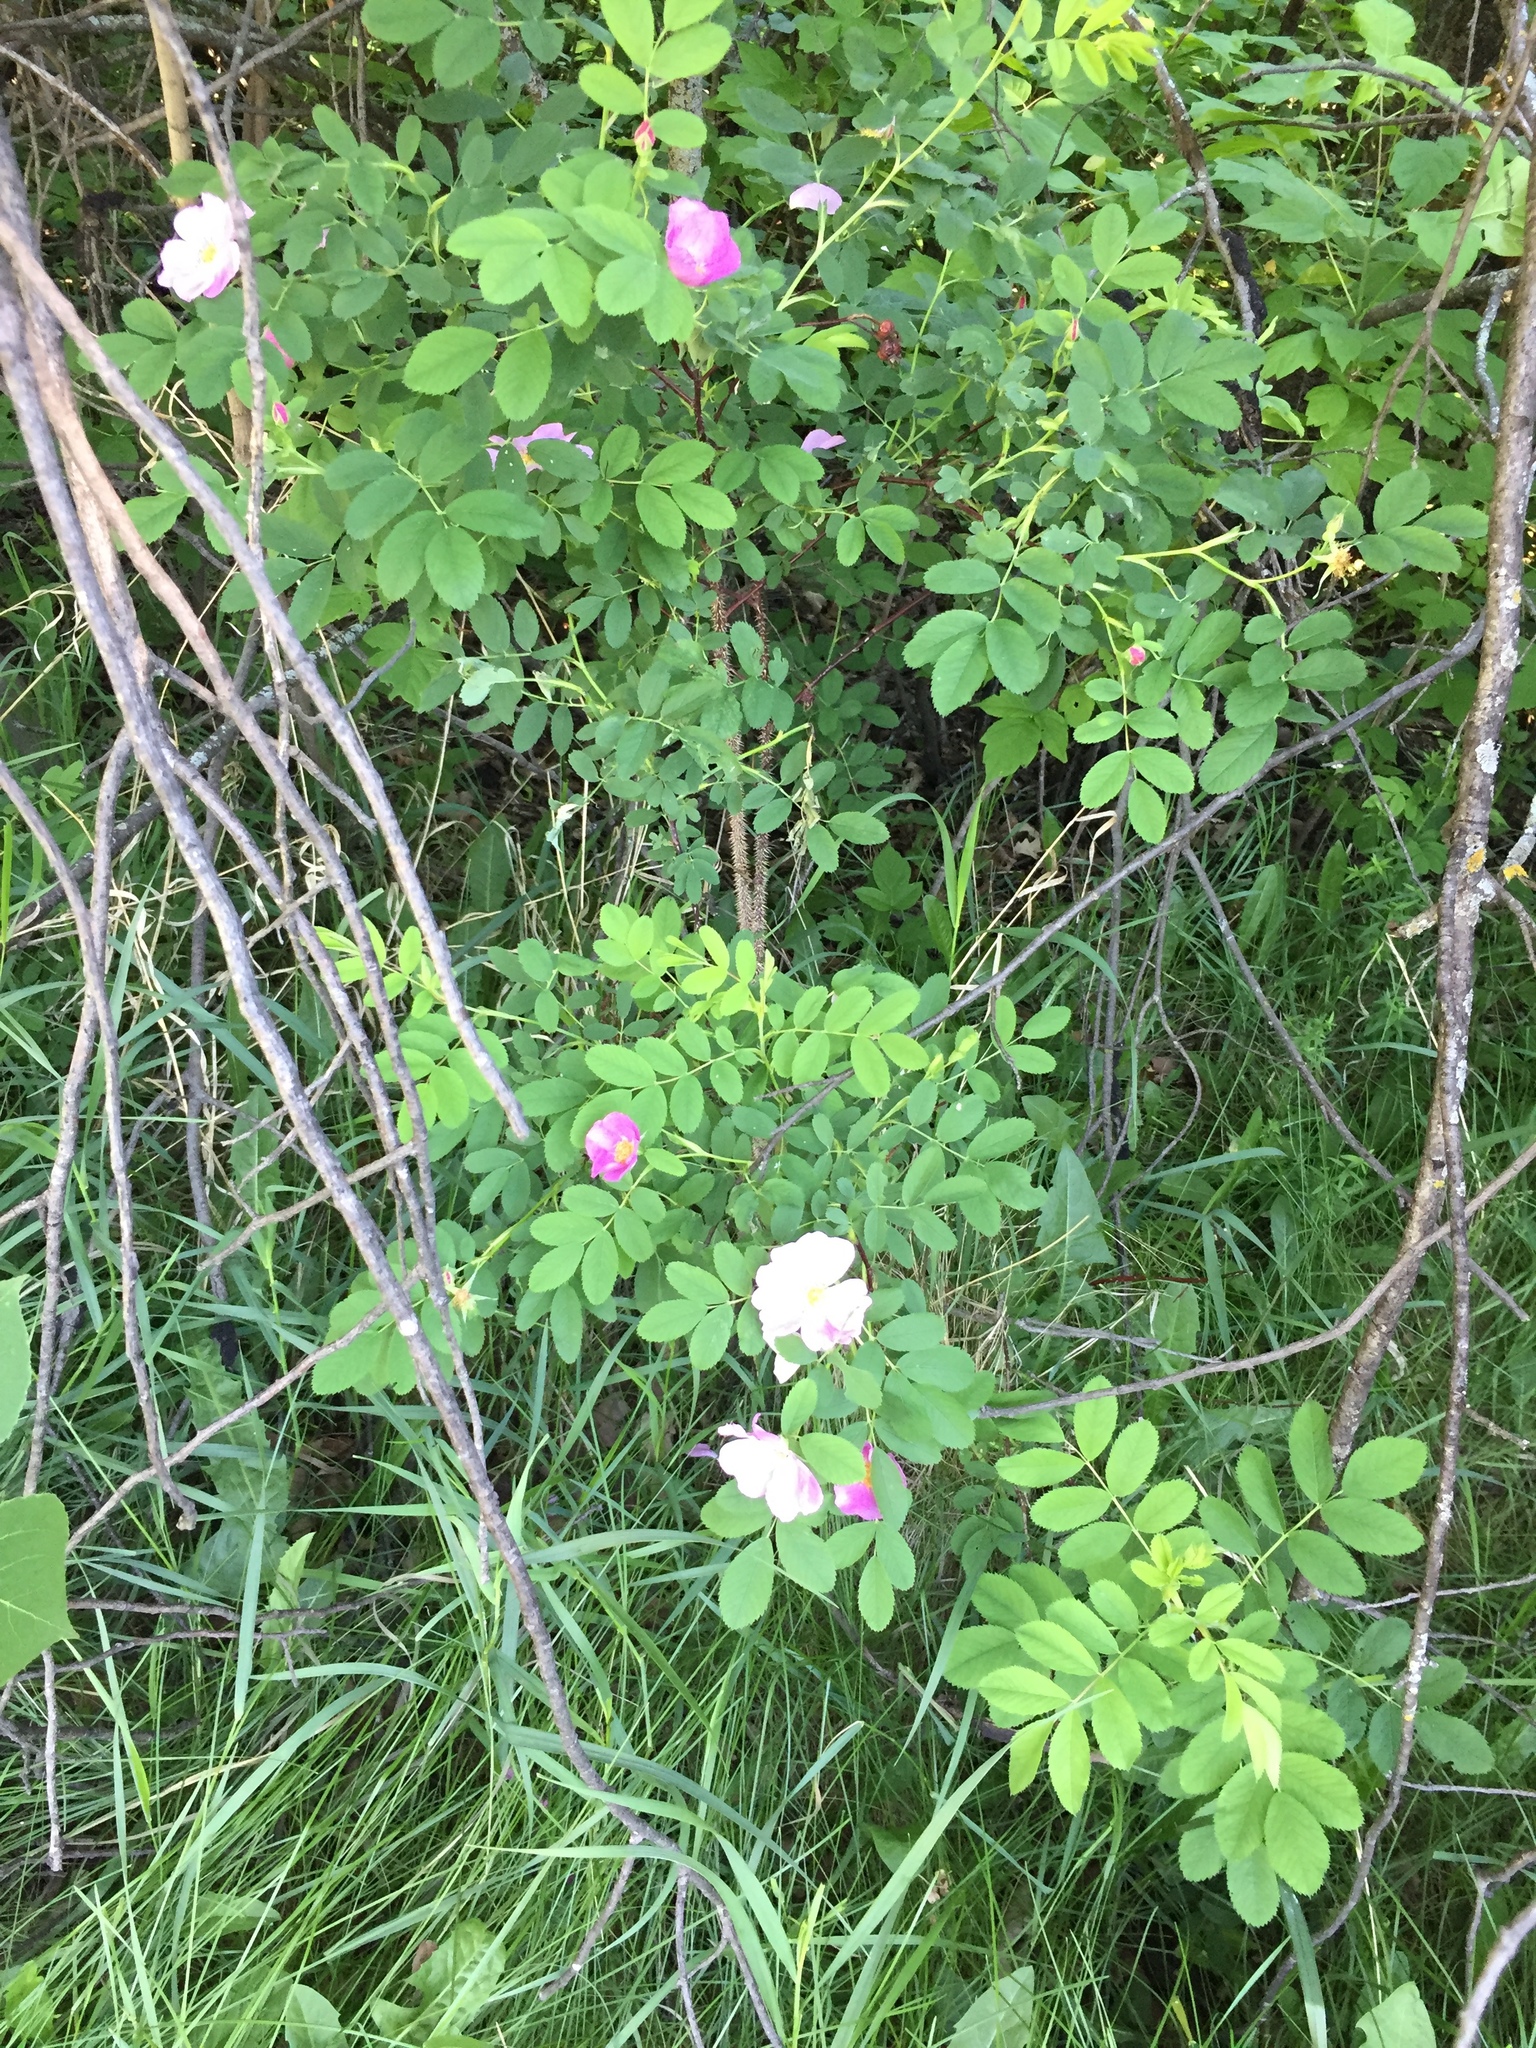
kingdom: Plantae
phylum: Tracheophyta
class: Magnoliopsida
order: Rosales
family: Rosaceae
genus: Rosa
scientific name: Rosa acicularis
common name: Prickly rose
